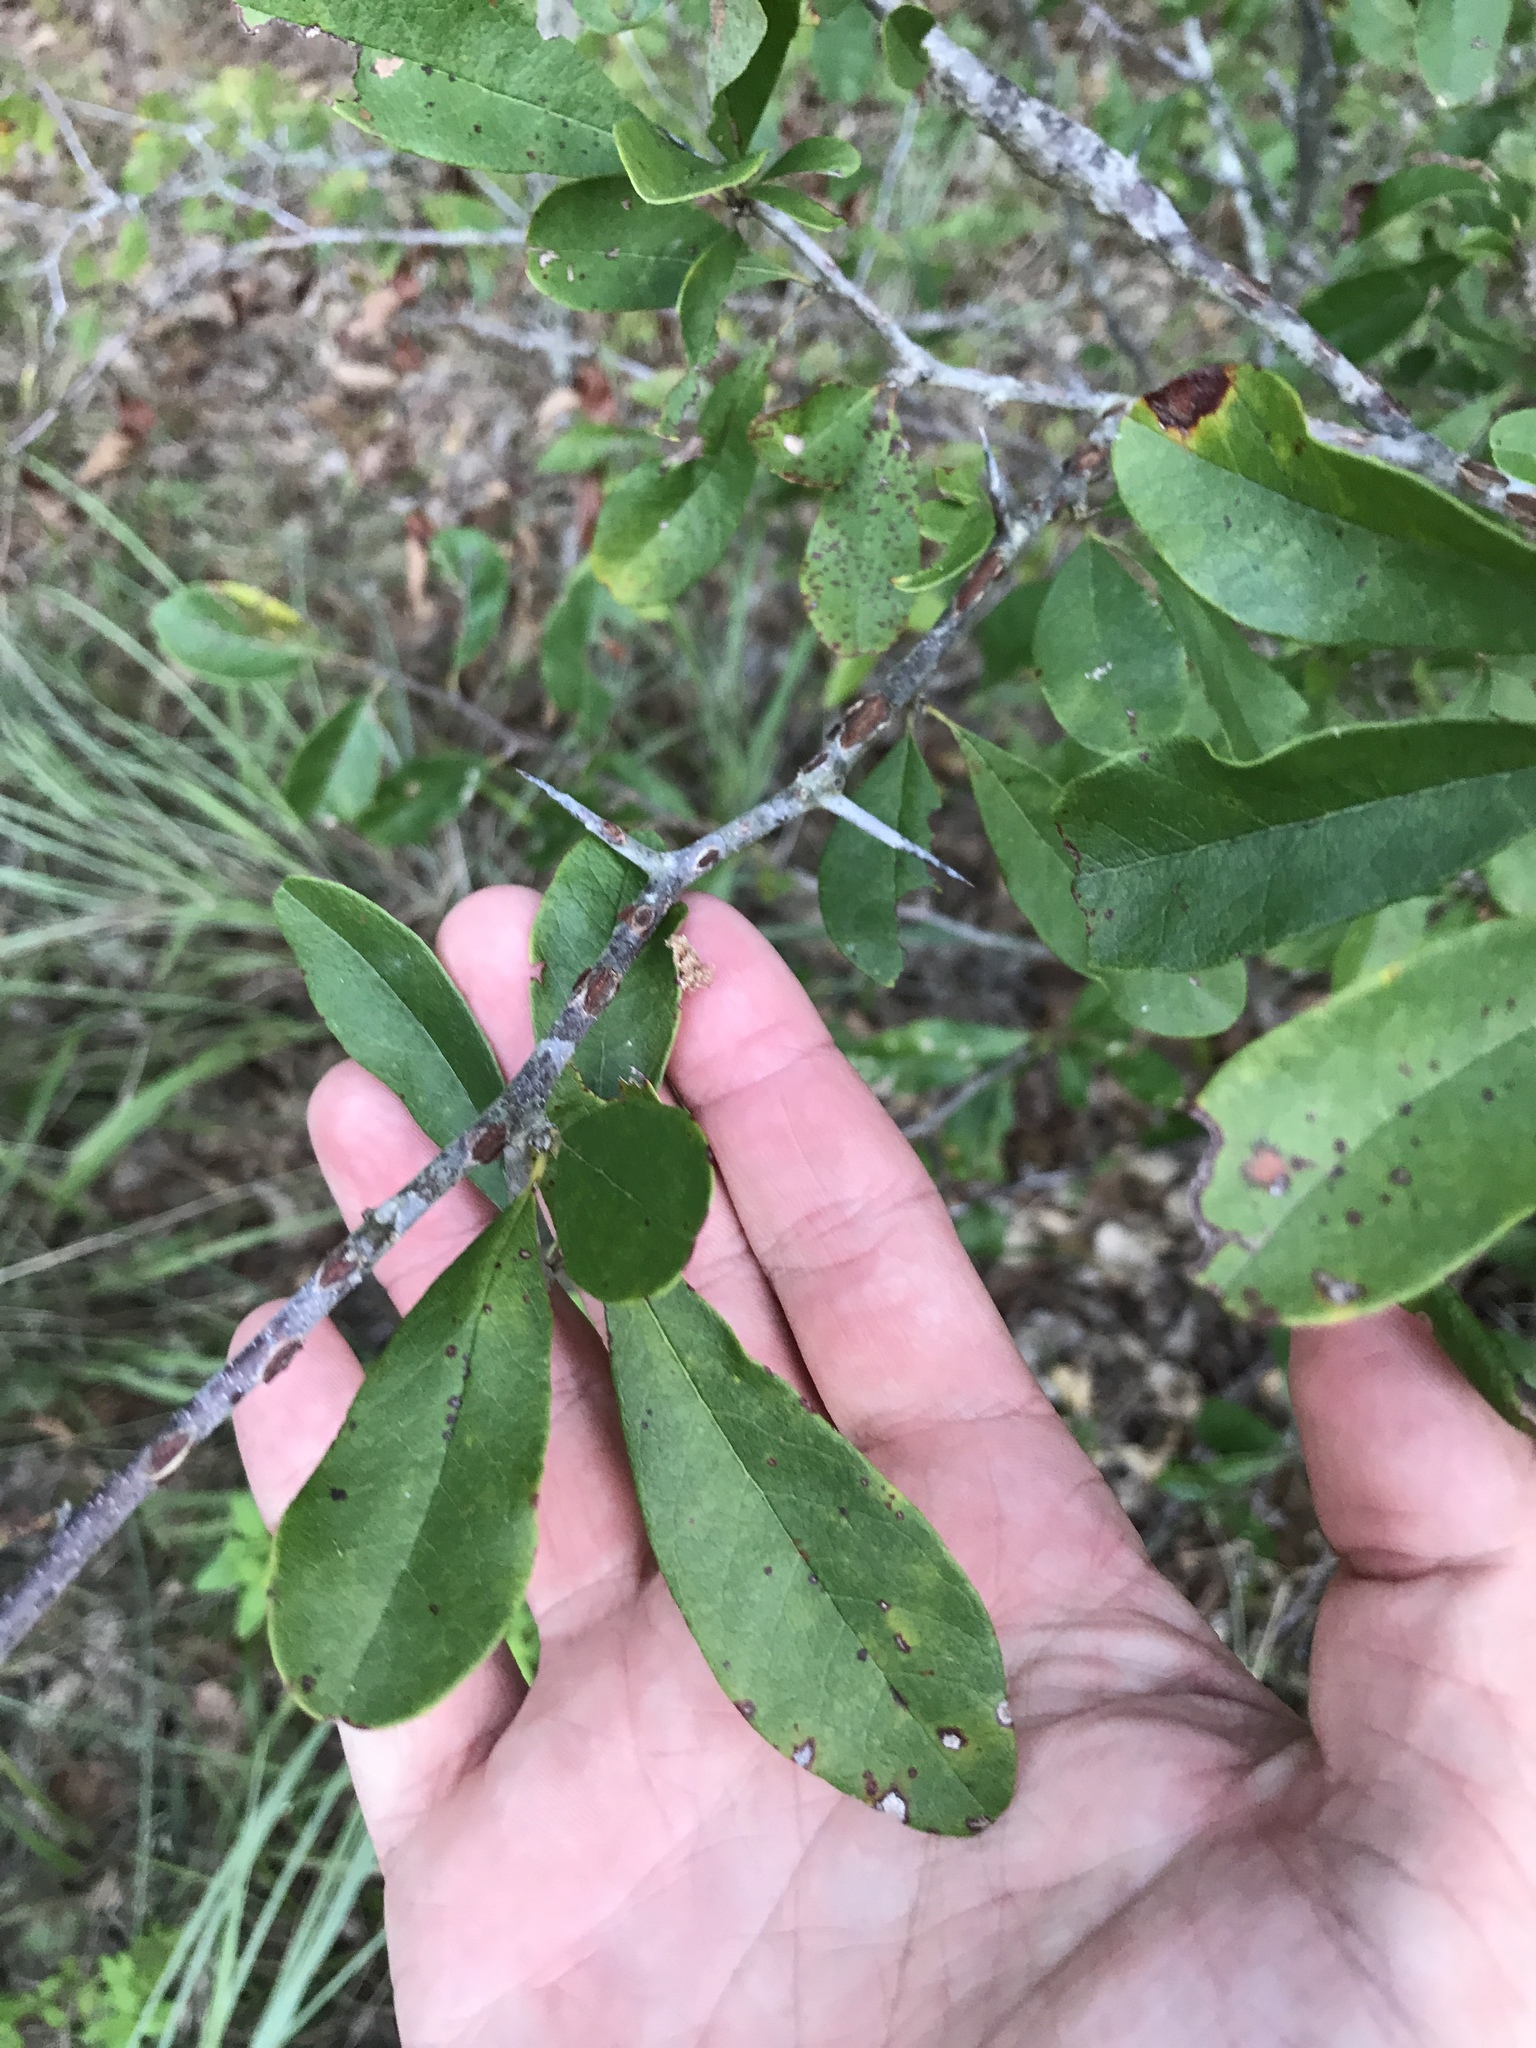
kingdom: Plantae
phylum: Tracheophyta
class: Magnoliopsida
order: Ericales
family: Sapotaceae
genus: Sideroxylon
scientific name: Sideroxylon lanuginosum
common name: Chittamwood
